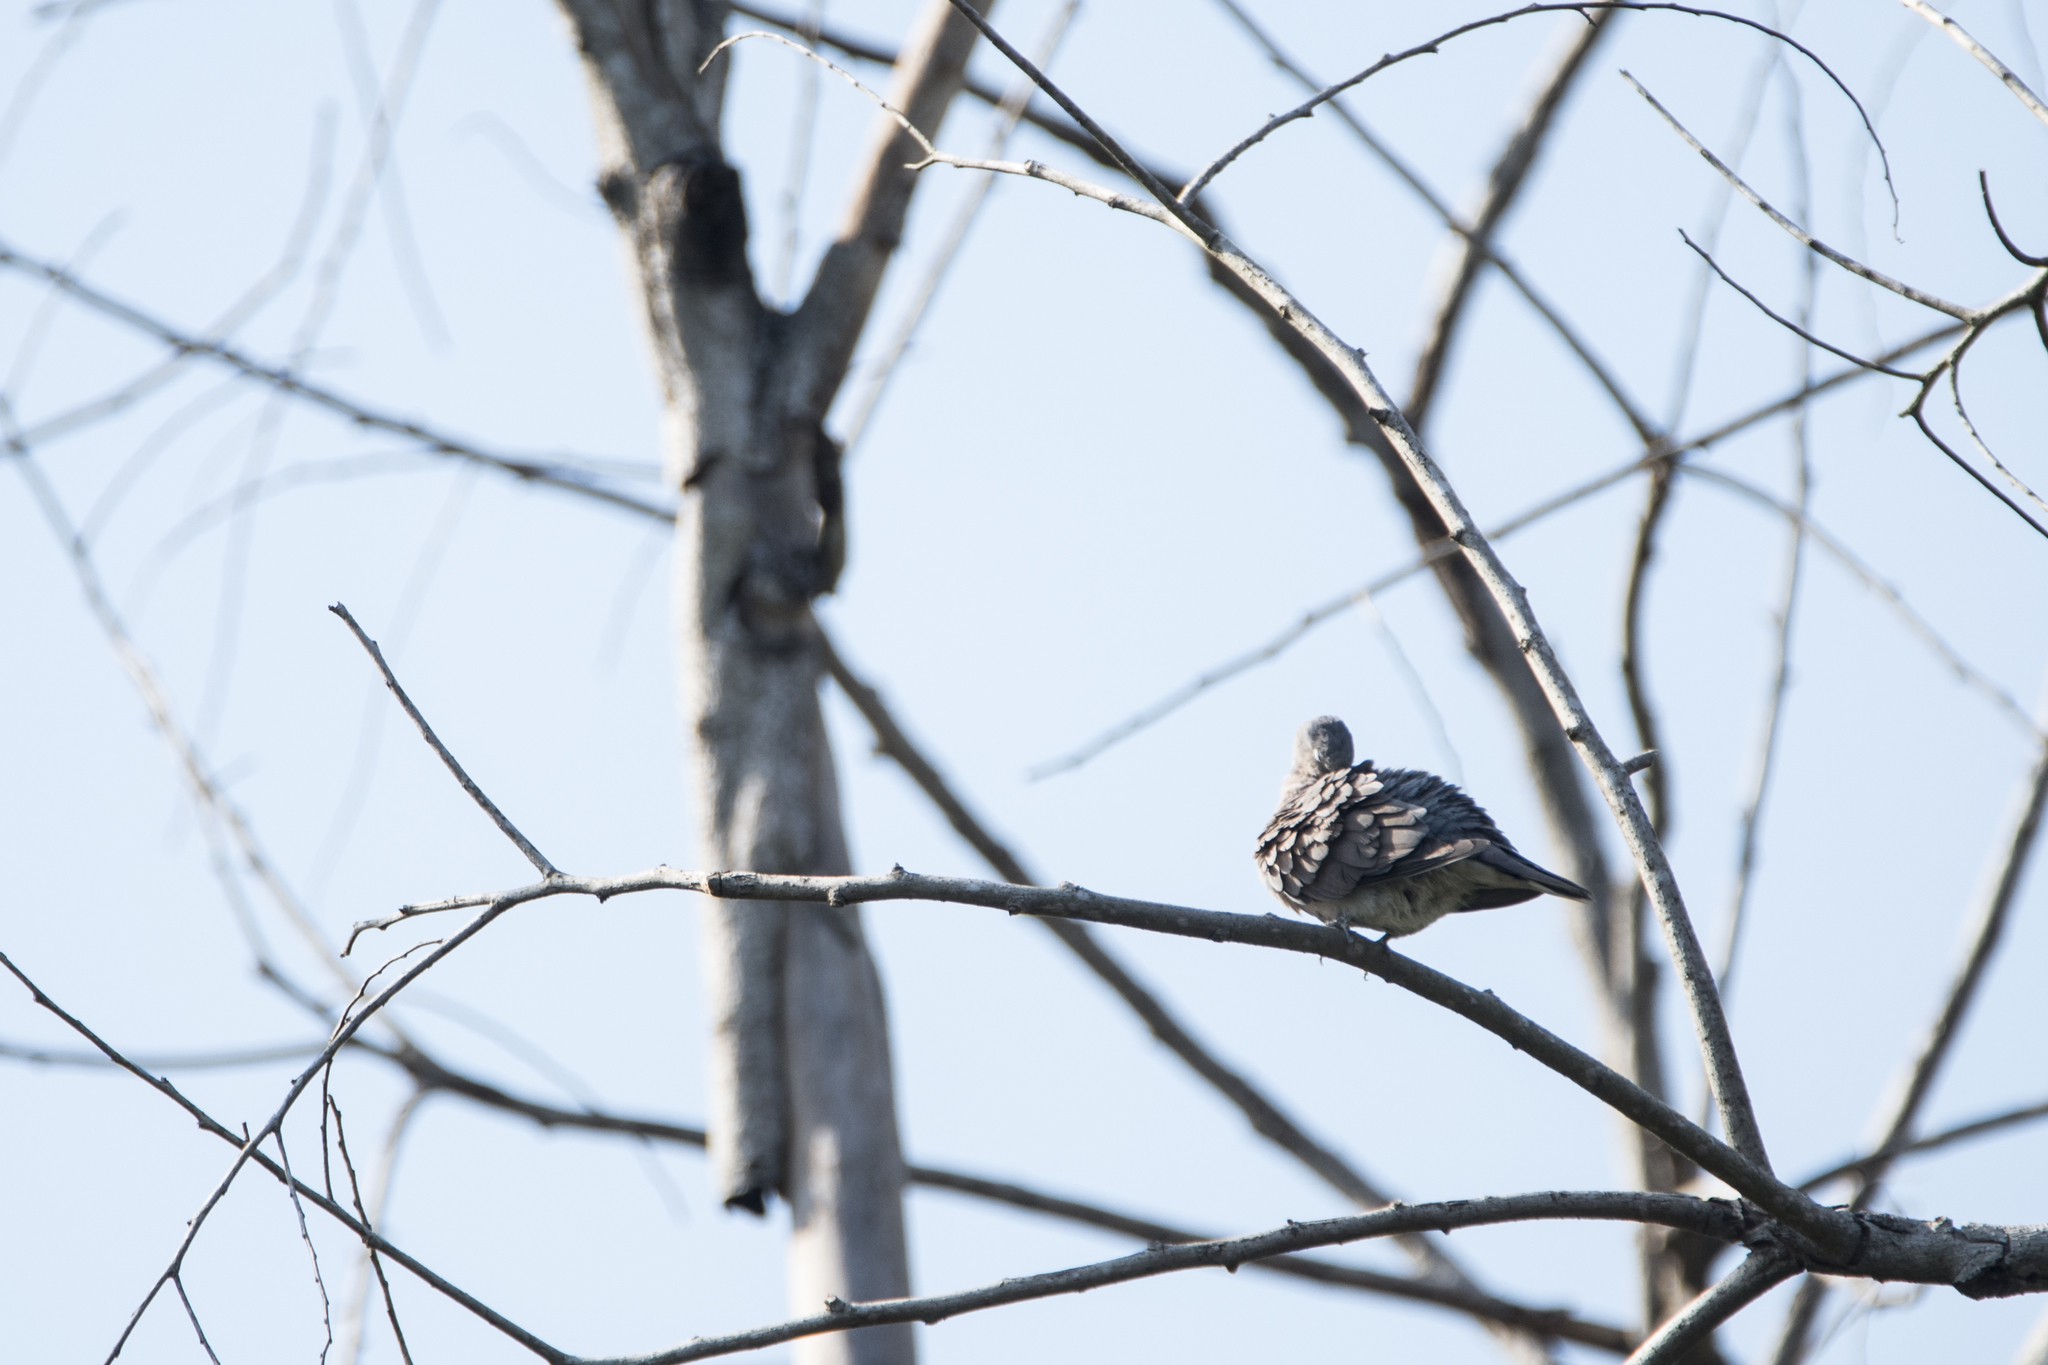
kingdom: Animalia
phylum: Chordata
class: Aves
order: Columbiformes
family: Columbidae
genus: Streptopelia
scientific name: Streptopelia tranquebarica
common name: Red turtle dove
